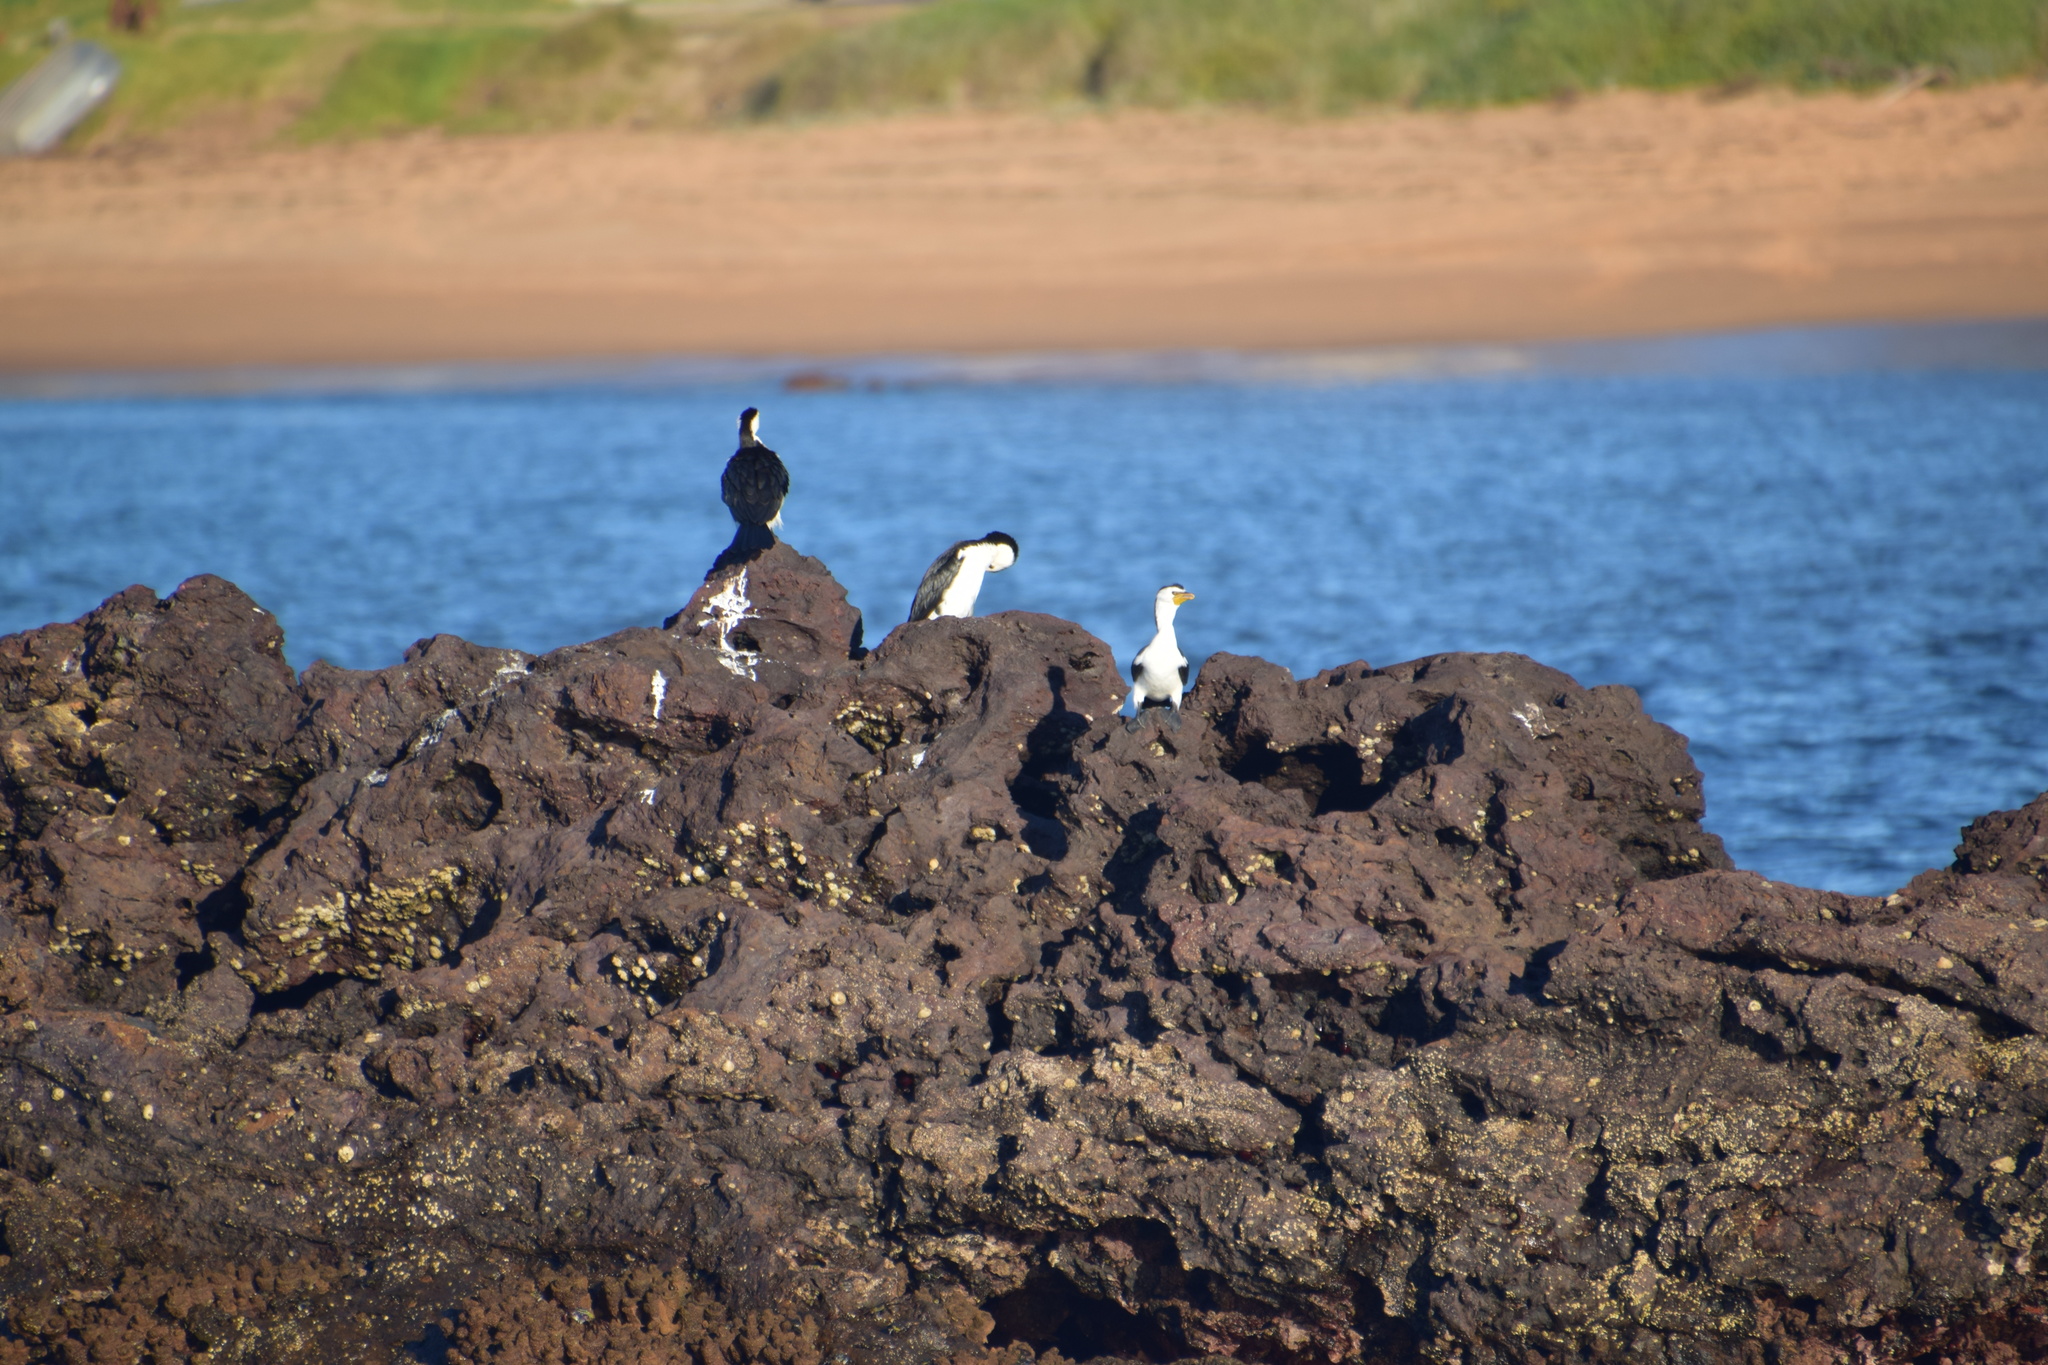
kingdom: Animalia
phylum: Chordata
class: Aves
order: Suliformes
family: Phalacrocoracidae
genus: Microcarbo
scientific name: Microcarbo melanoleucos
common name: Little pied cormorant
